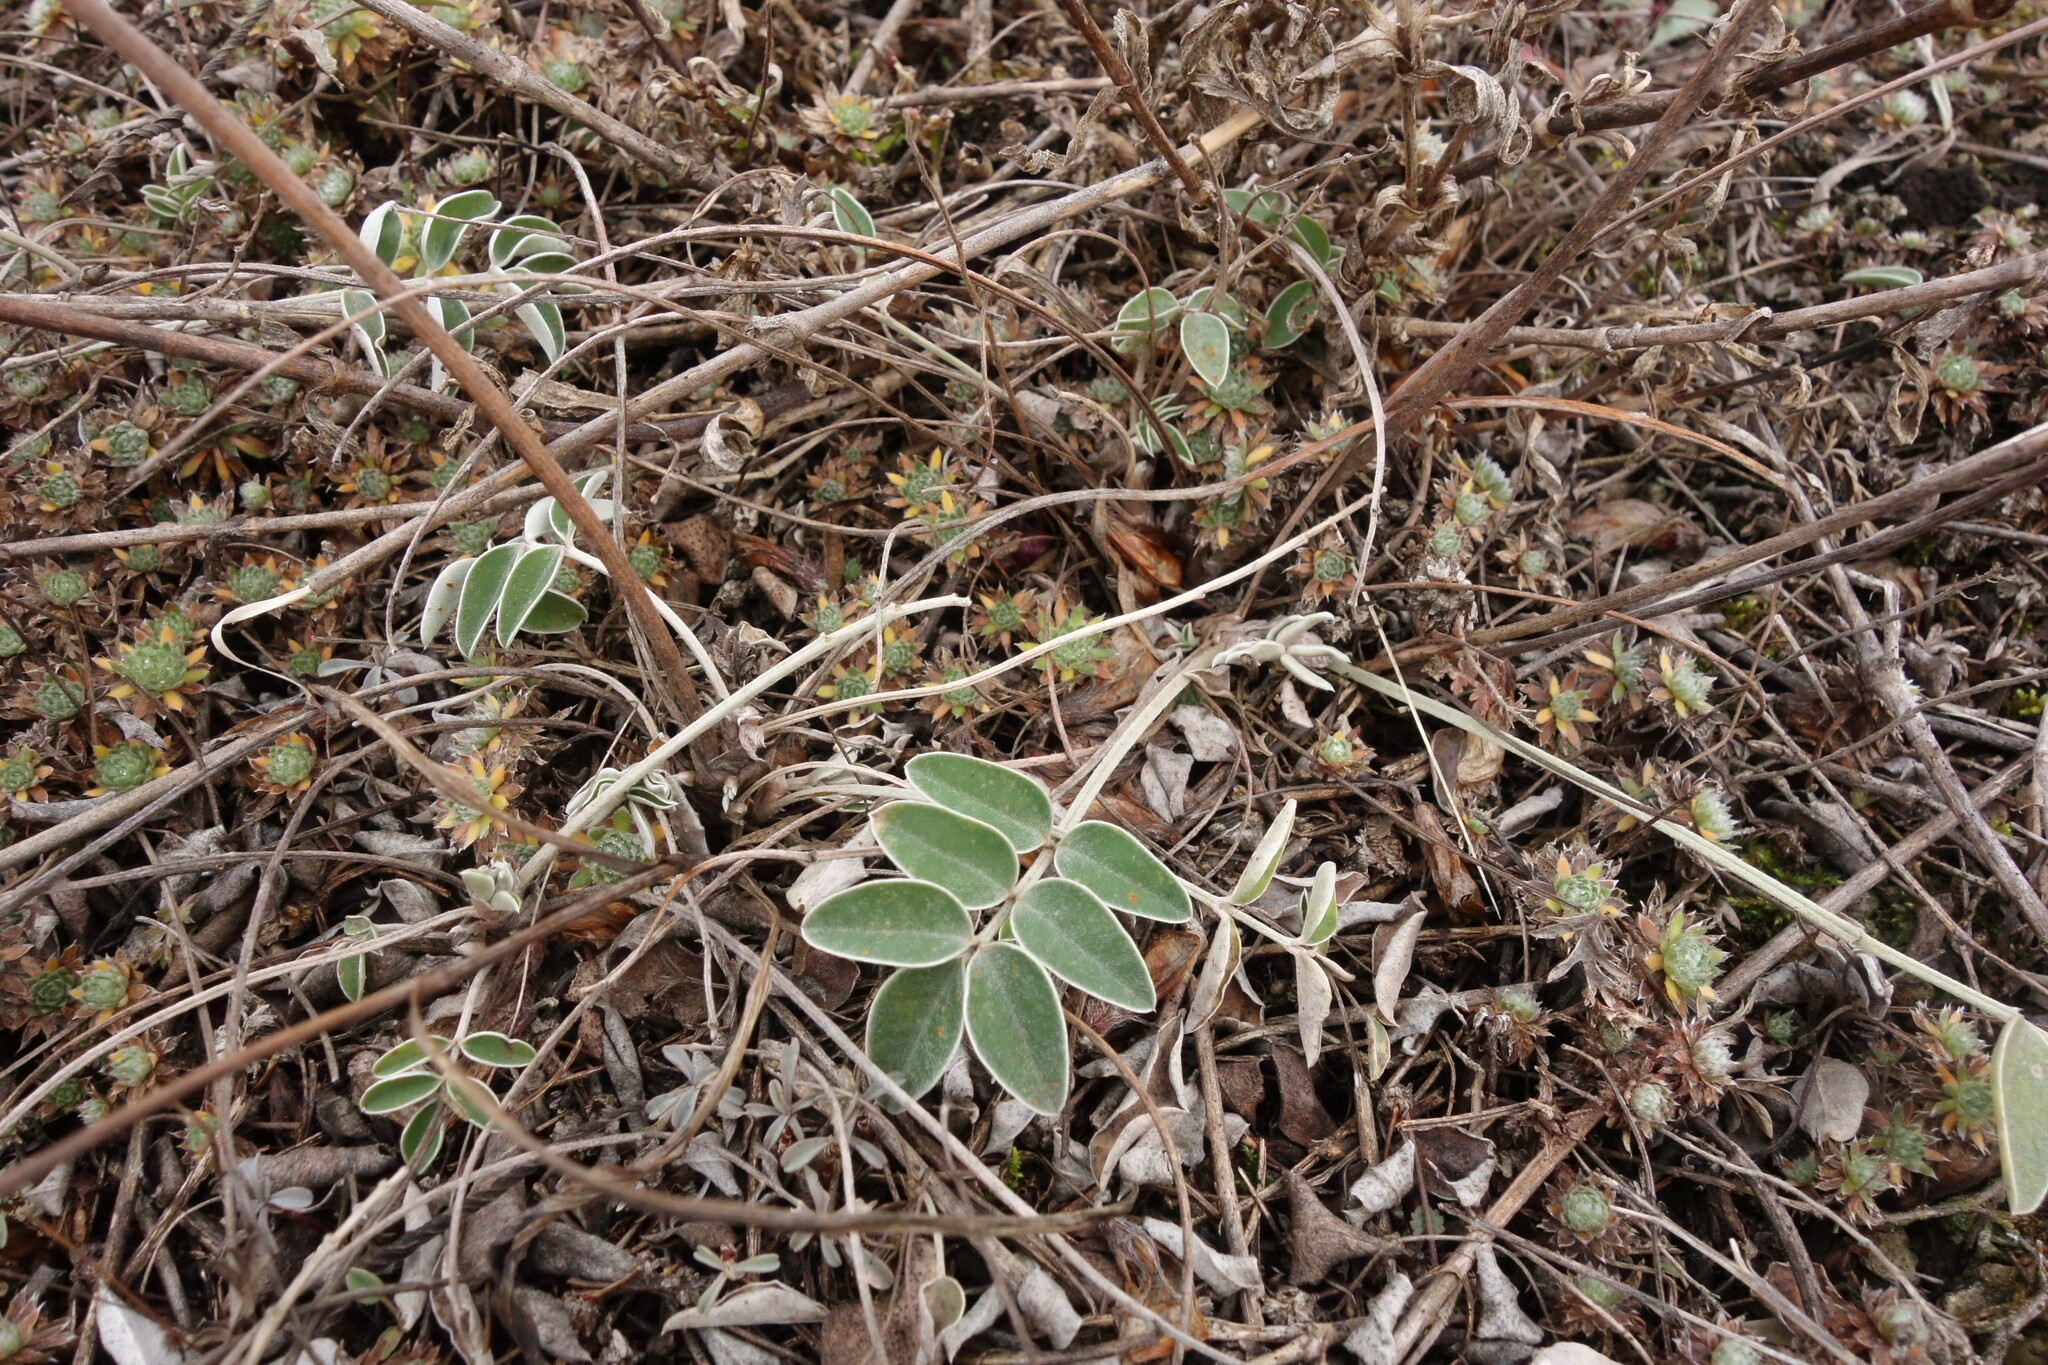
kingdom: Plantae
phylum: Tracheophyta
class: Magnoliopsida
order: Fabales
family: Fabaceae
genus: Hedysarum
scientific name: Hedysarum grandiflorum
